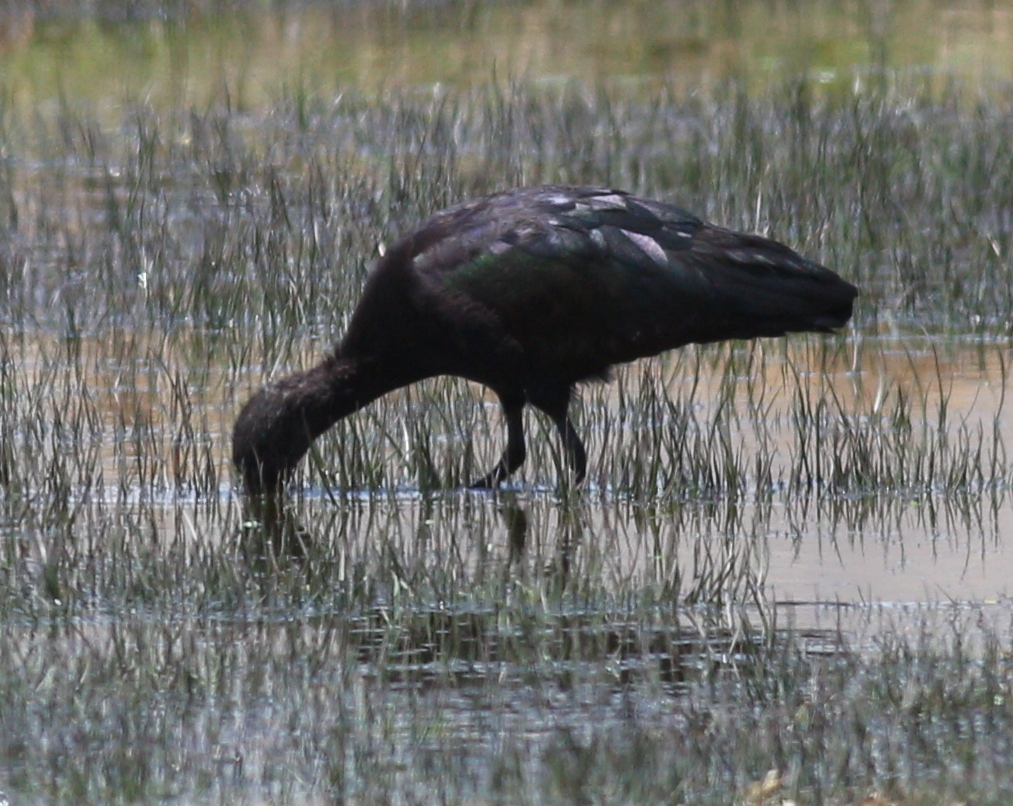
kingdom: Animalia
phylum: Chordata
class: Aves
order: Pelecaniformes
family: Threskiornithidae
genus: Plegadis
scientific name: Plegadis ridgwayi
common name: Puna ibis
